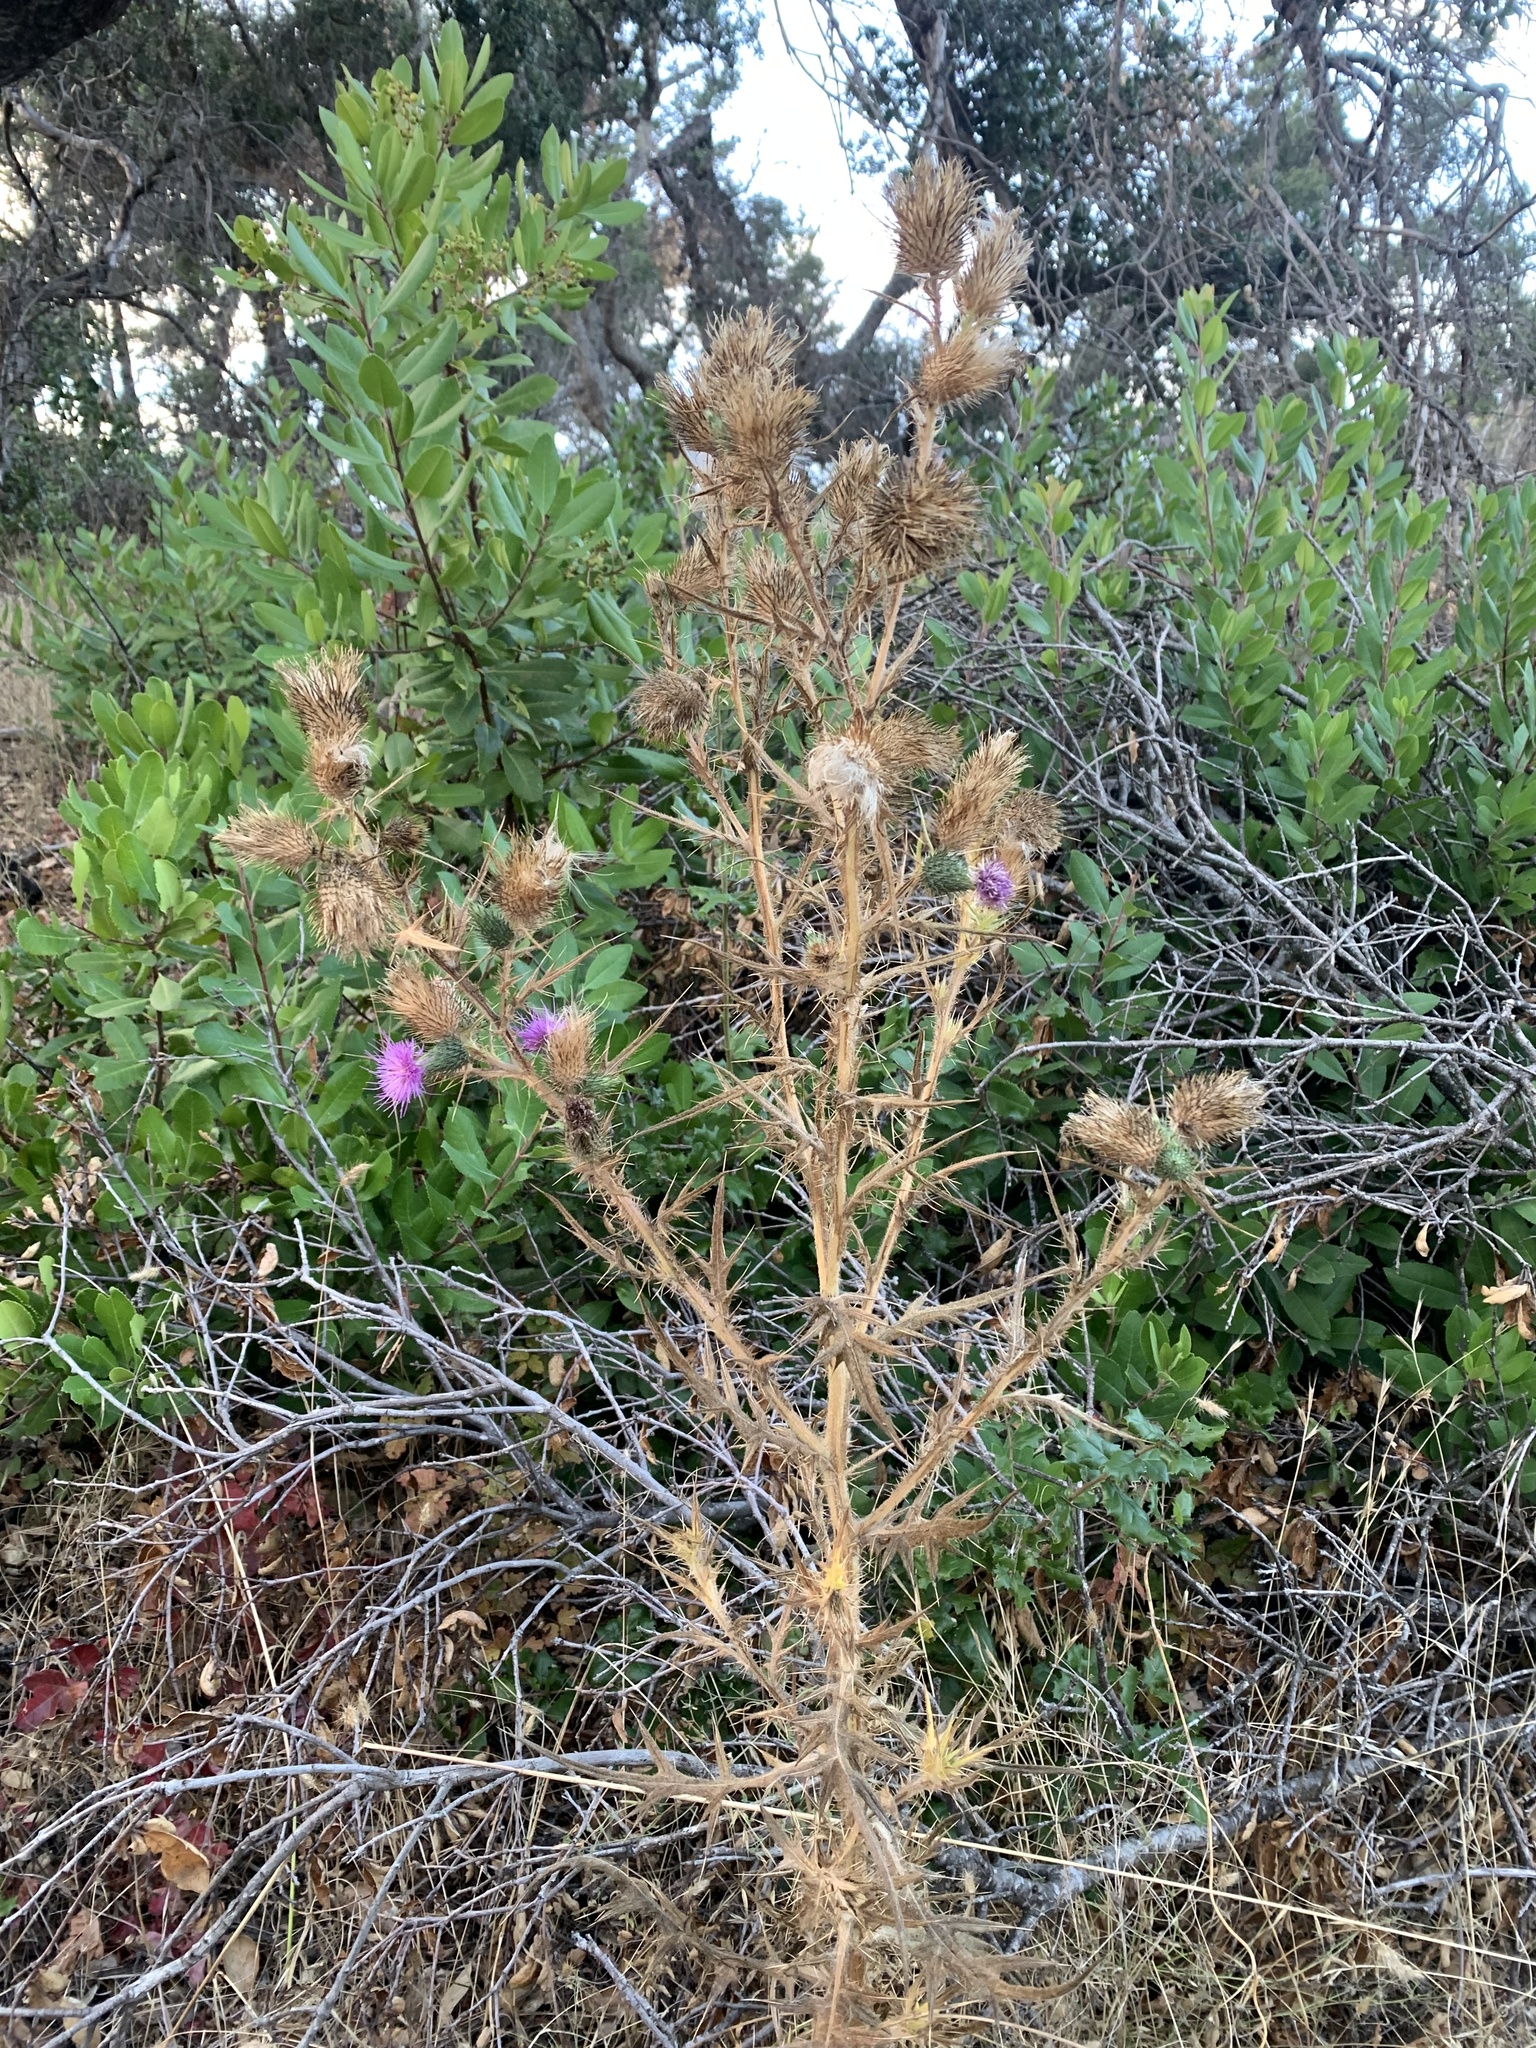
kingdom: Plantae
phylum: Tracheophyta
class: Magnoliopsida
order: Asterales
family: Asteraceae
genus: Cirsium
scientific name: Cirsium vulgare
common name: Bull thistle
